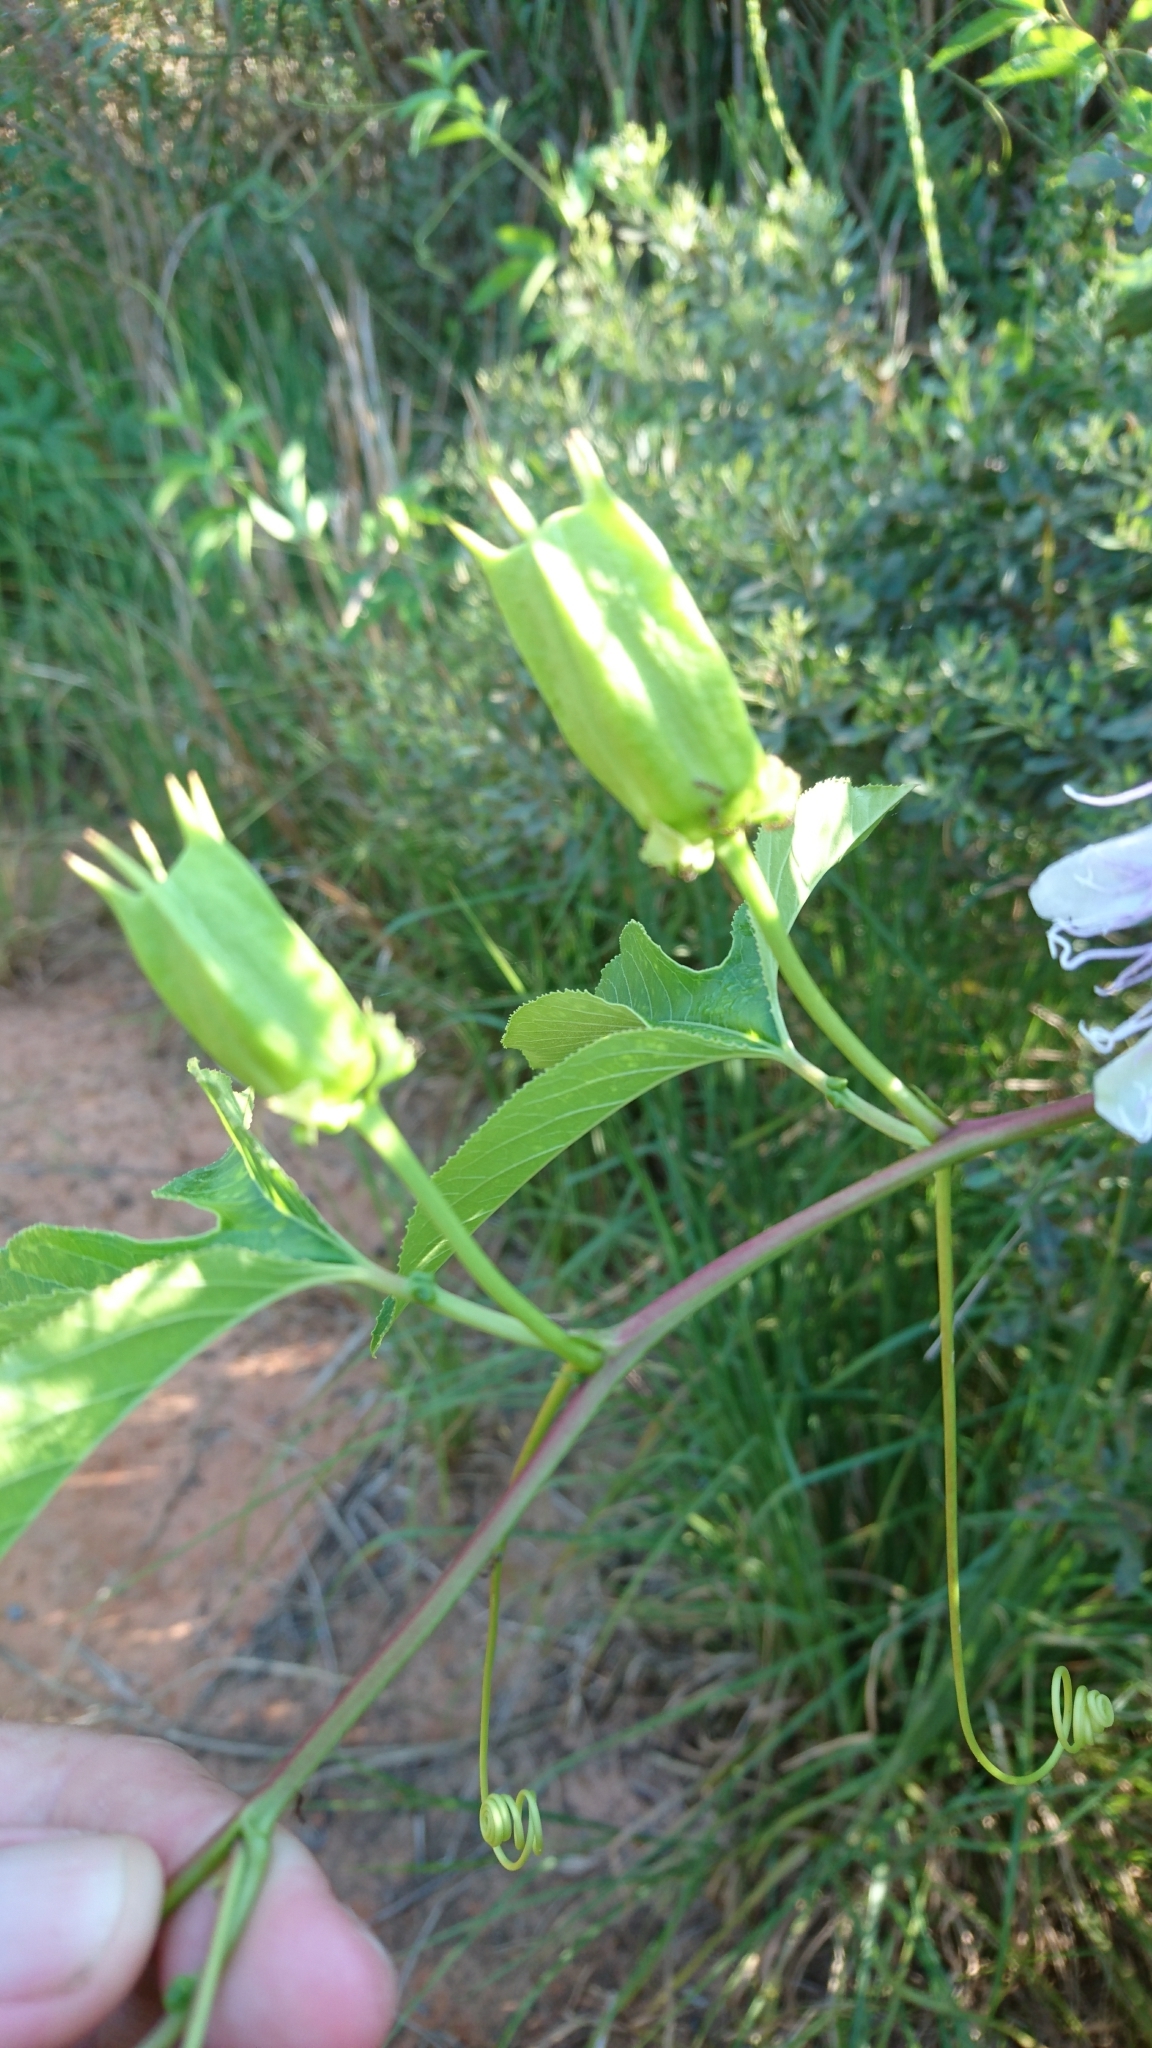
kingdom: Plantae
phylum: Tracheophyta
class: Magnoliopsida
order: Malpighiales
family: Passifloraceae
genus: Passiflora
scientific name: Passiflora incarnata
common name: Apricot-vine
